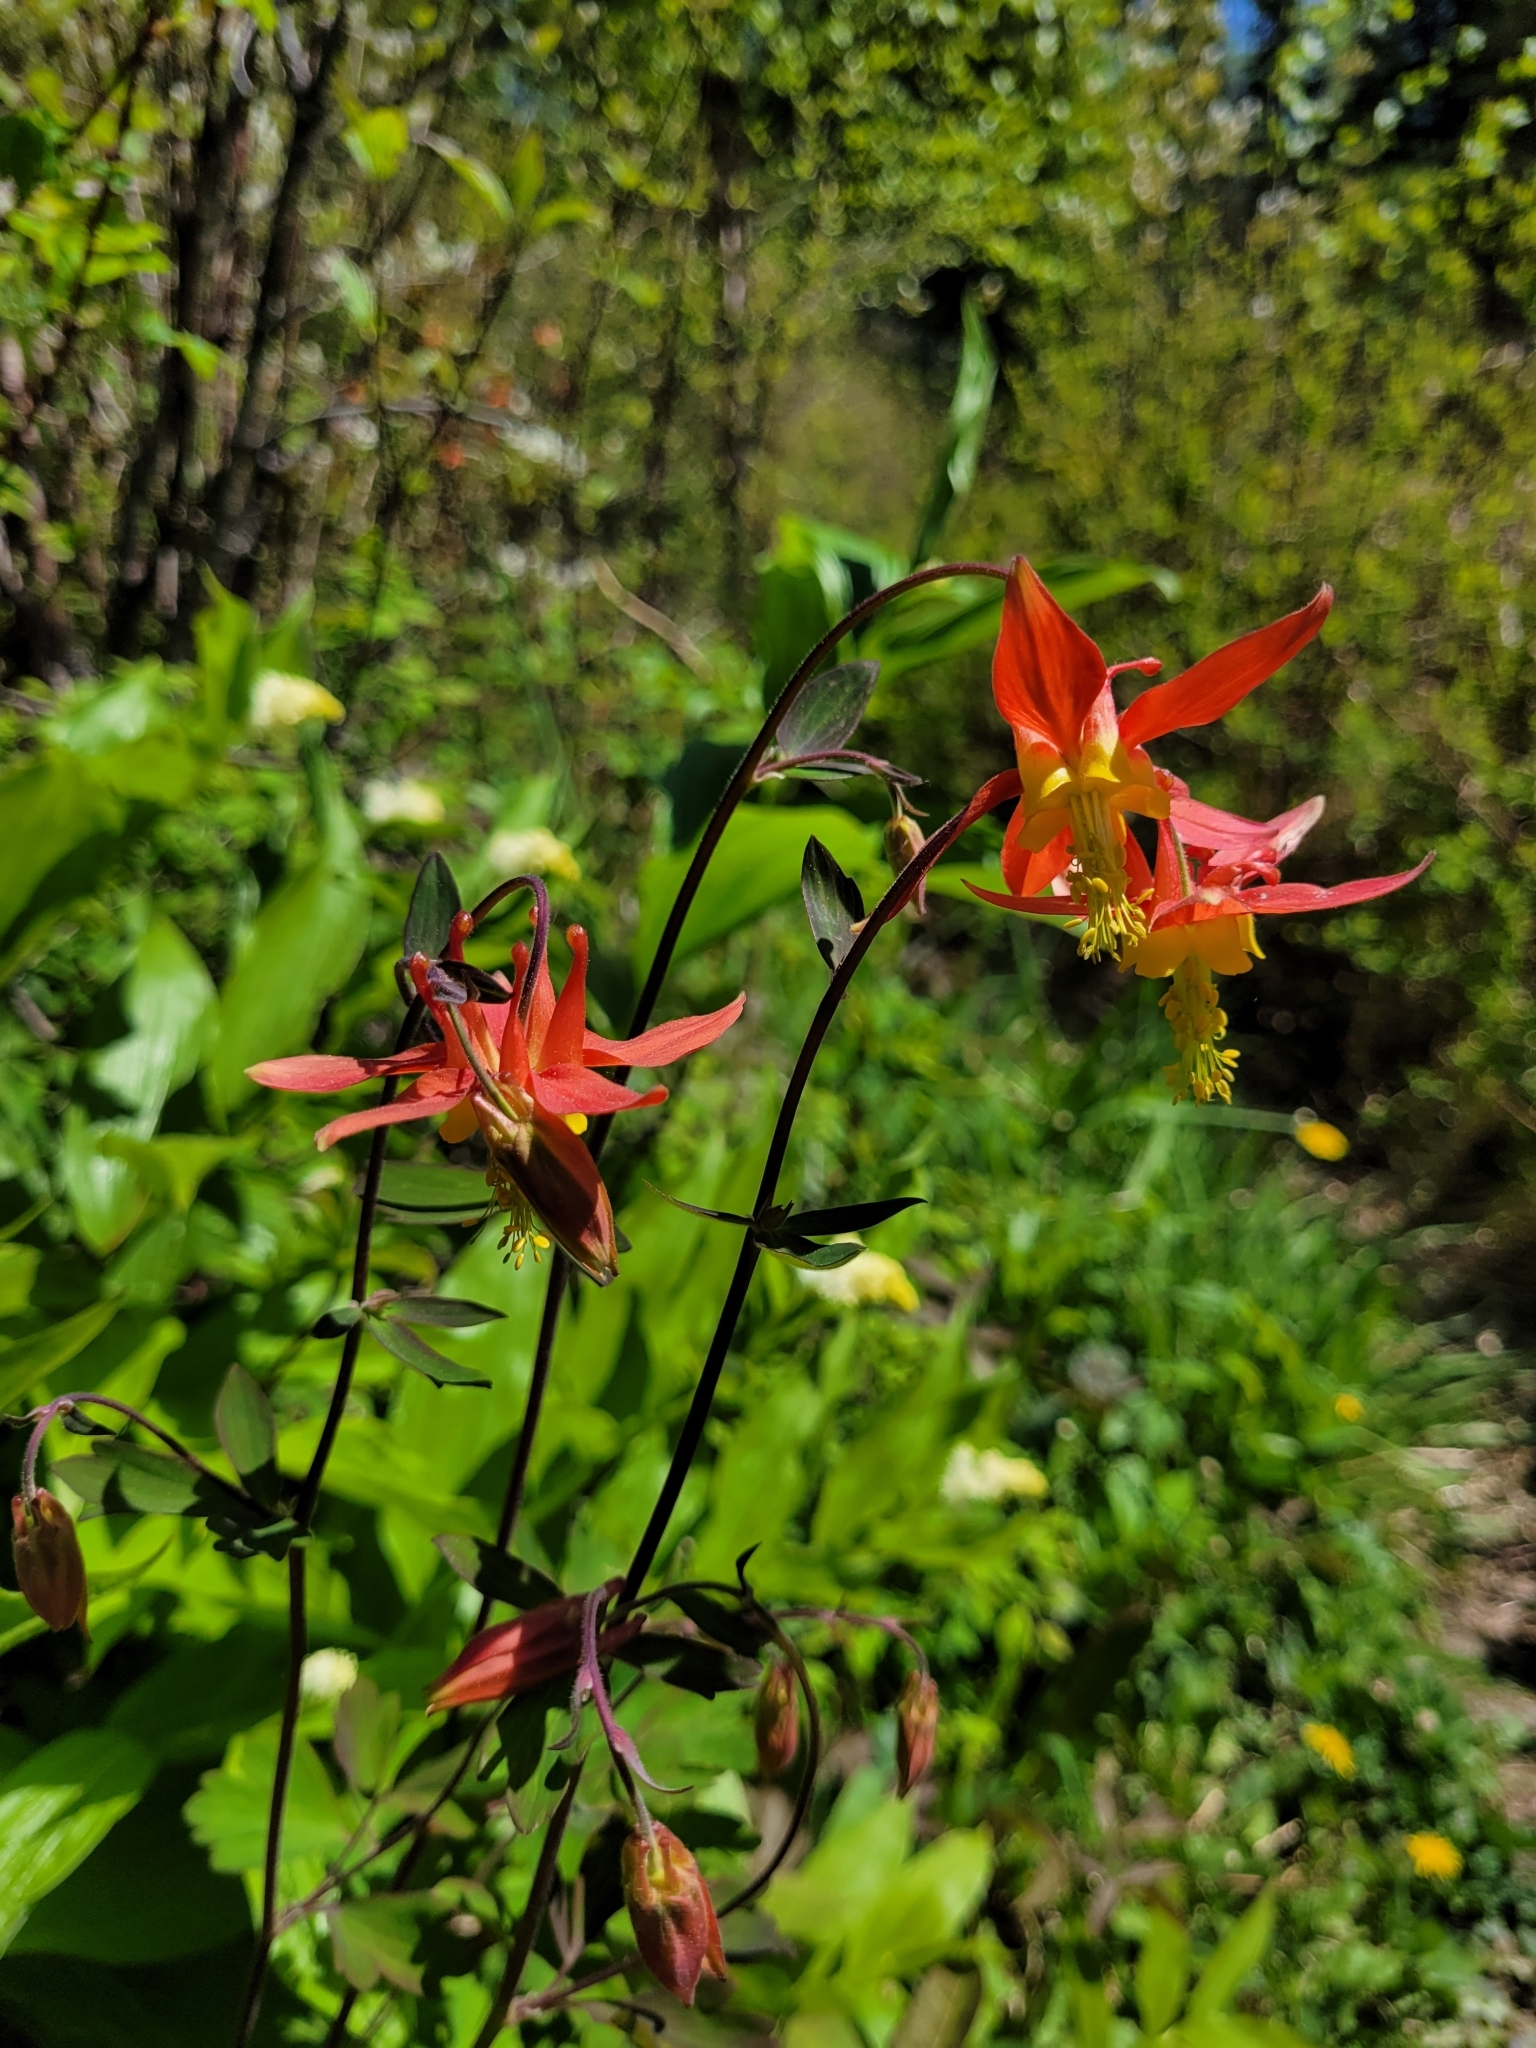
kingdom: Plantae
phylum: Tracheophyta
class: Magnoliopsida
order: Ranunculales
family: Ranunculaceae
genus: Aquilegia
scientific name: Aquilegia formosa
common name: Sitka columbine
